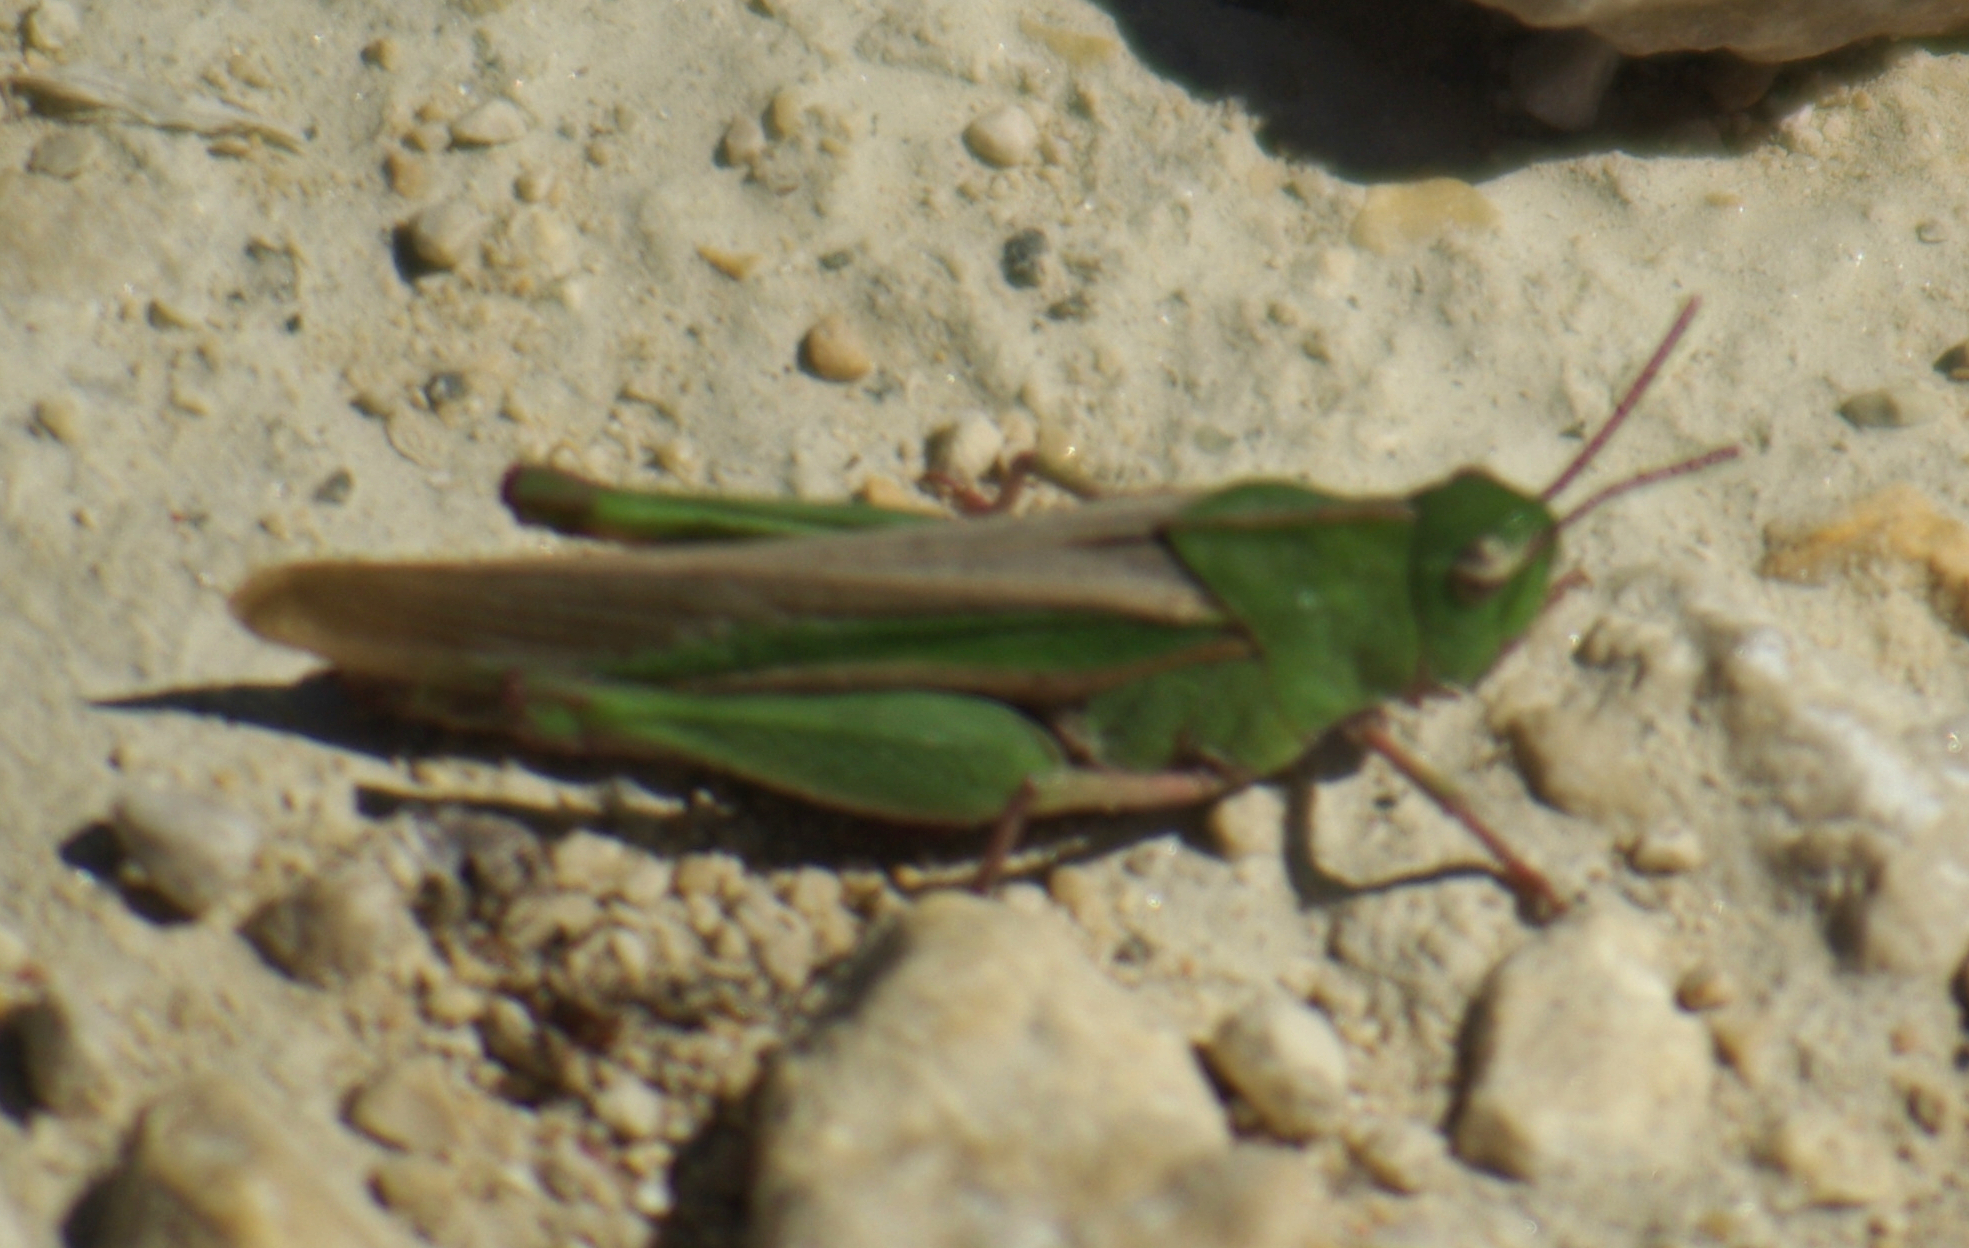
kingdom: Animalia
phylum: Arthropoda
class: Insecta
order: Orthoptera
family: Acrididae
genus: Chortophaga
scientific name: Chortophaga viridifasciata
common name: Green-striped grasshopper
